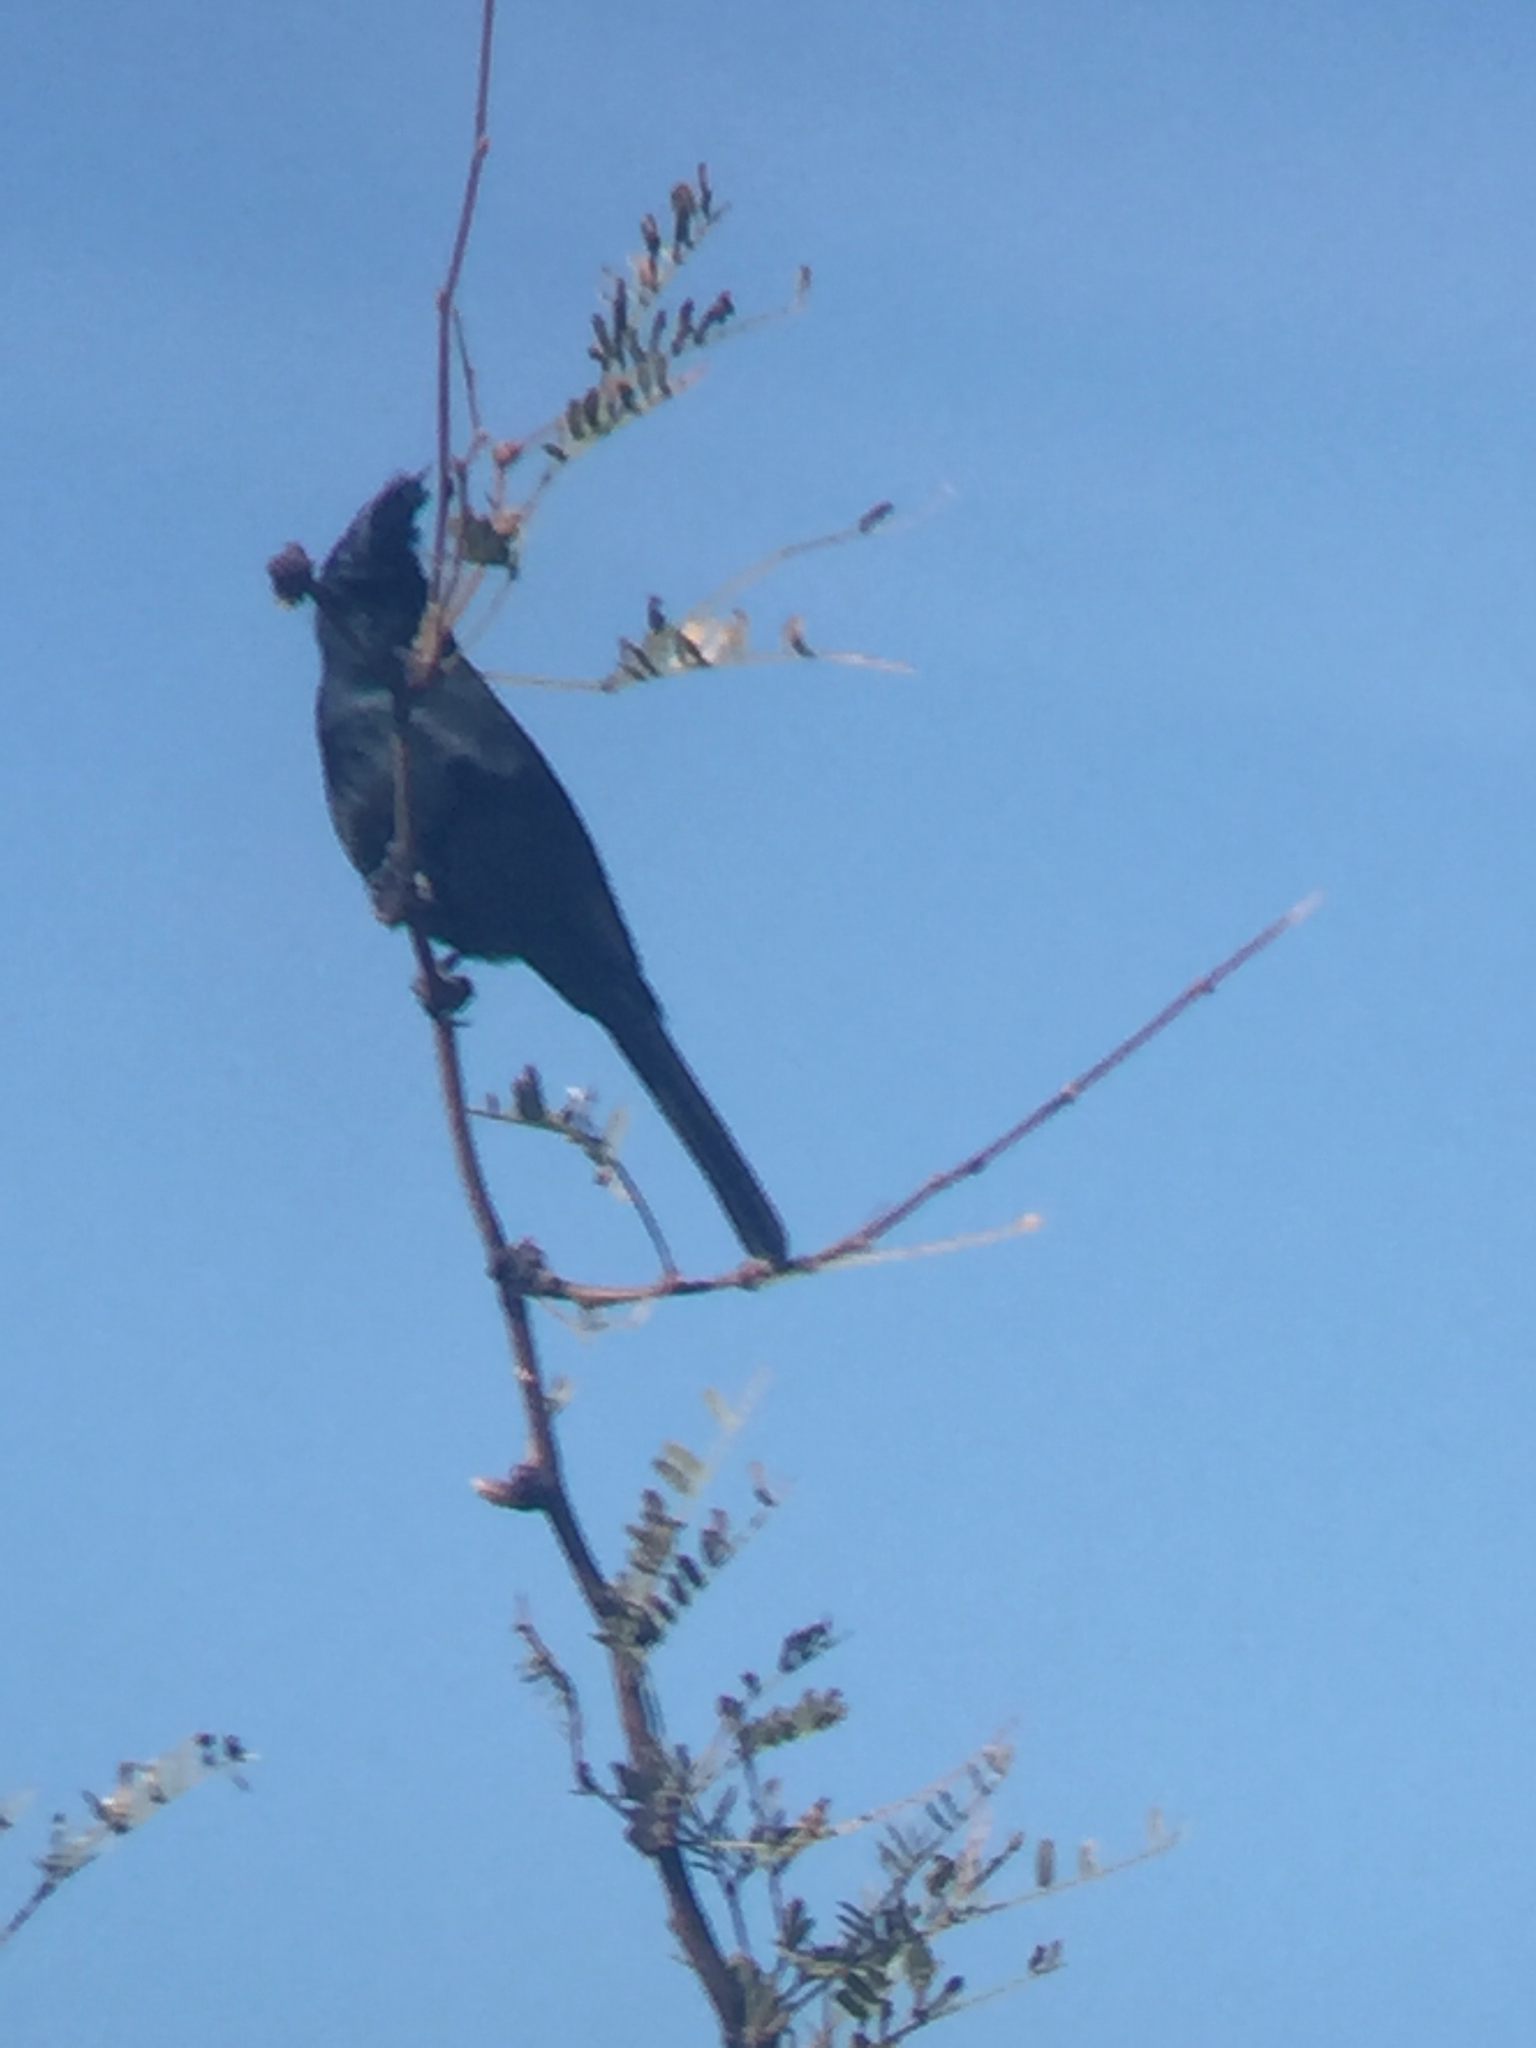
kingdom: Animalia
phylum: Chordata
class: Aves
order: Passeriformes
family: Ptilogonatidae
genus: Phainopepla
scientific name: Phainopepla nitens
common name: Phainopepla
